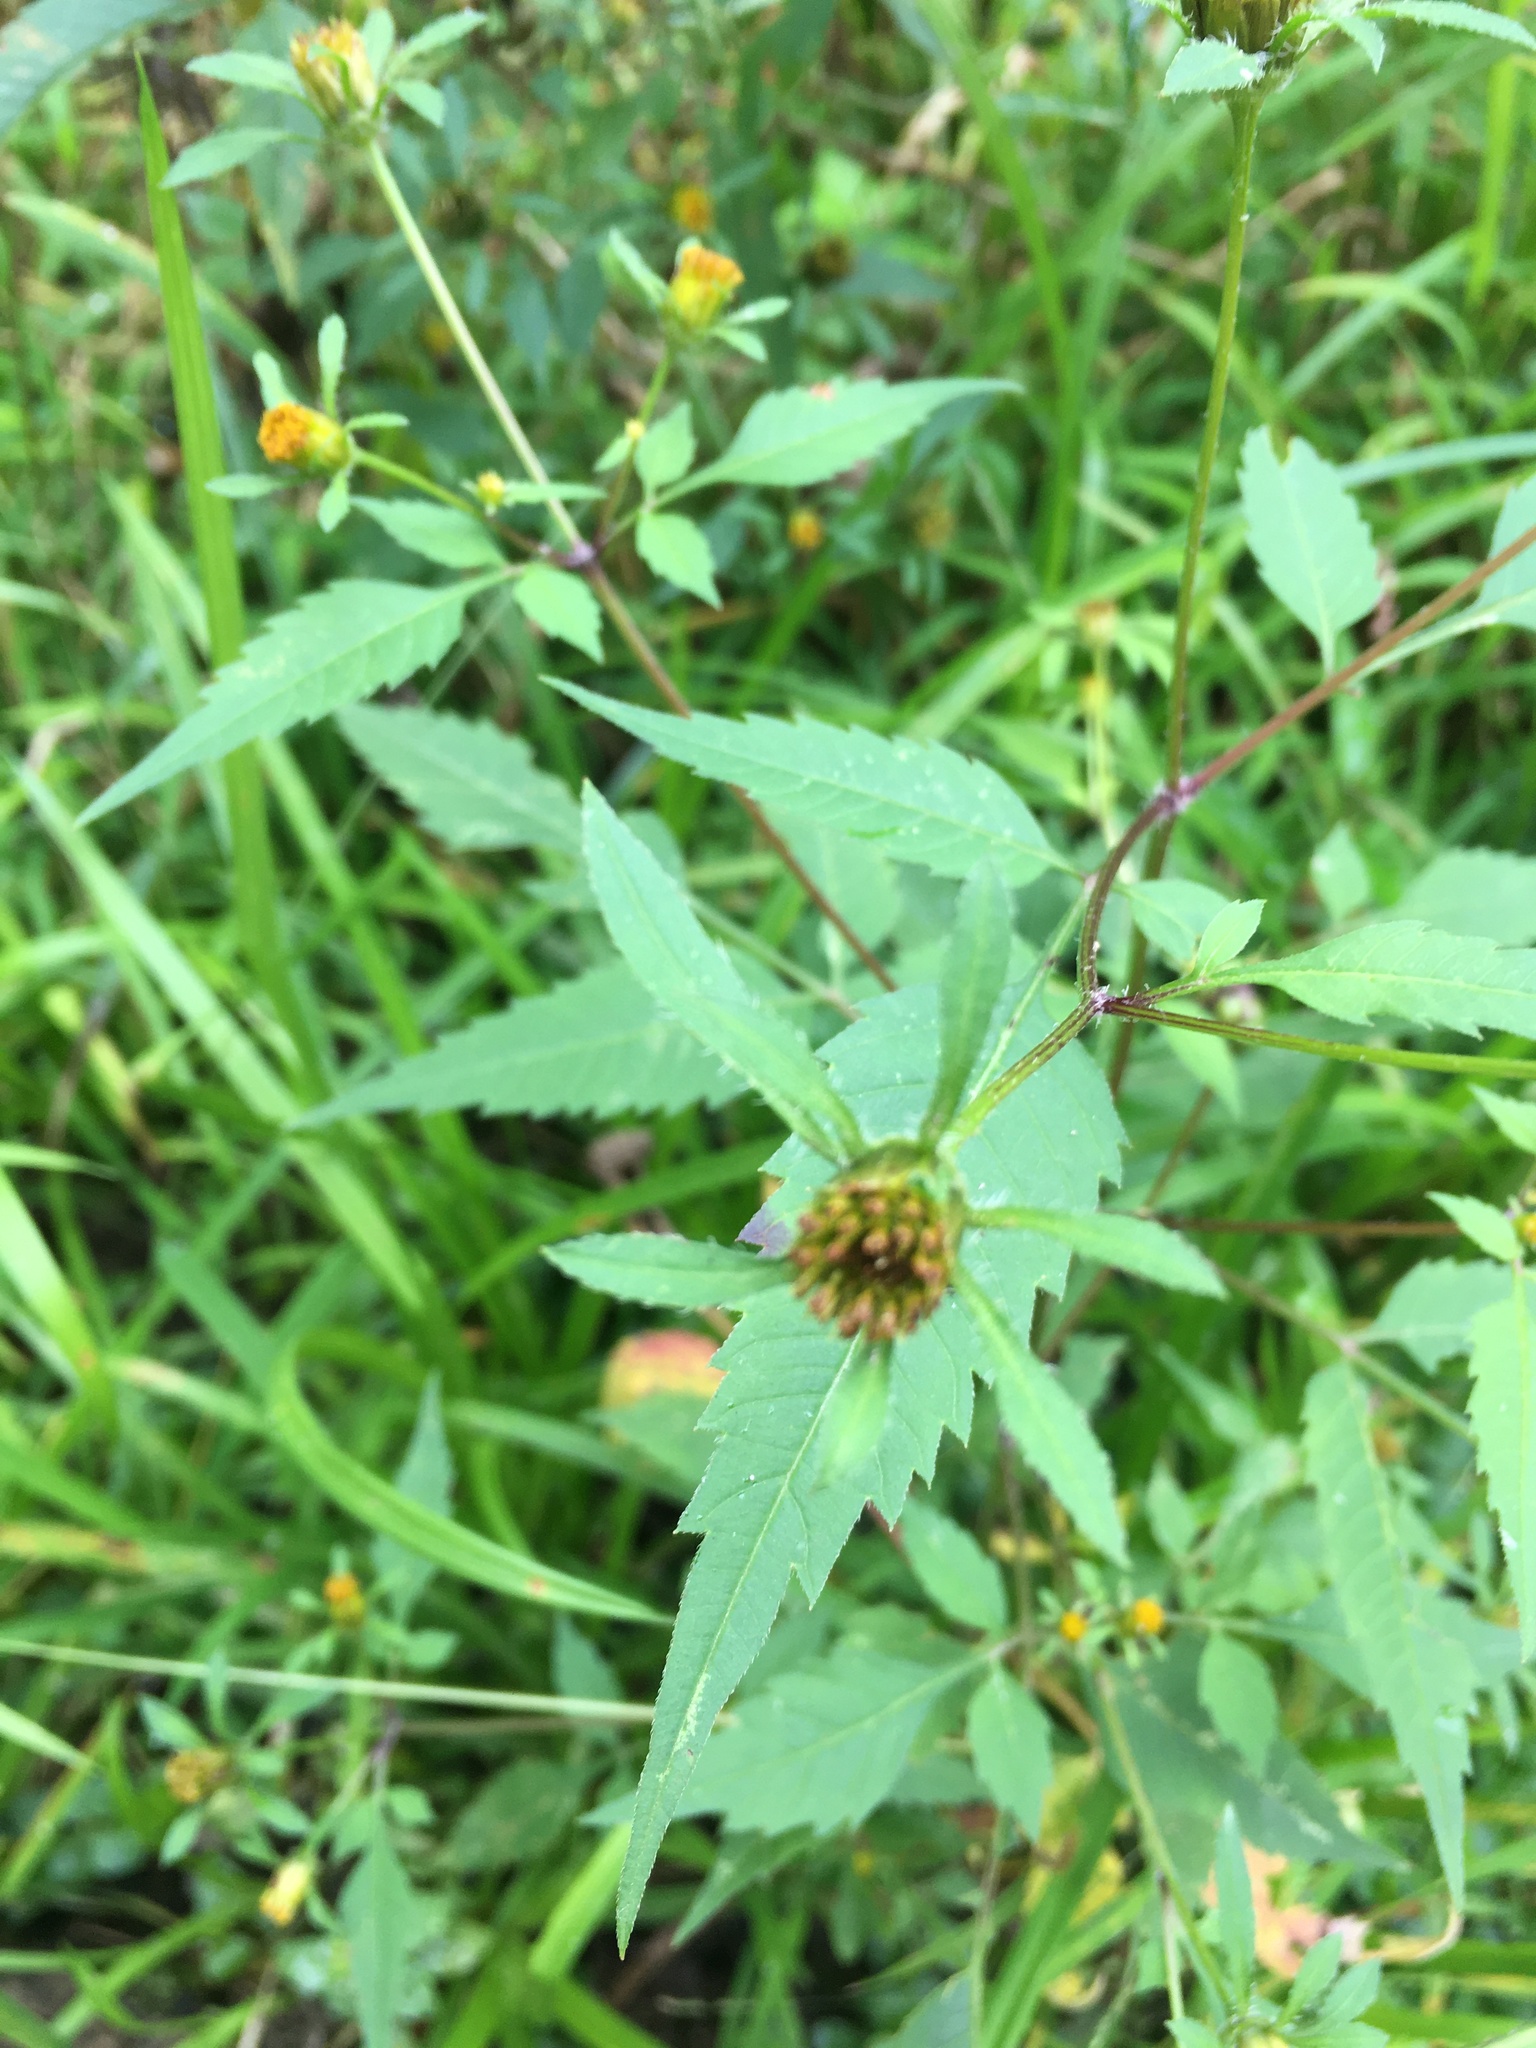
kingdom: Plantae
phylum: Tracheophyta
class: Magnoliopsida
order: Asterales
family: Asteraceae
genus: Bidens
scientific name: Bidens frondosa
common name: Beggarticks
